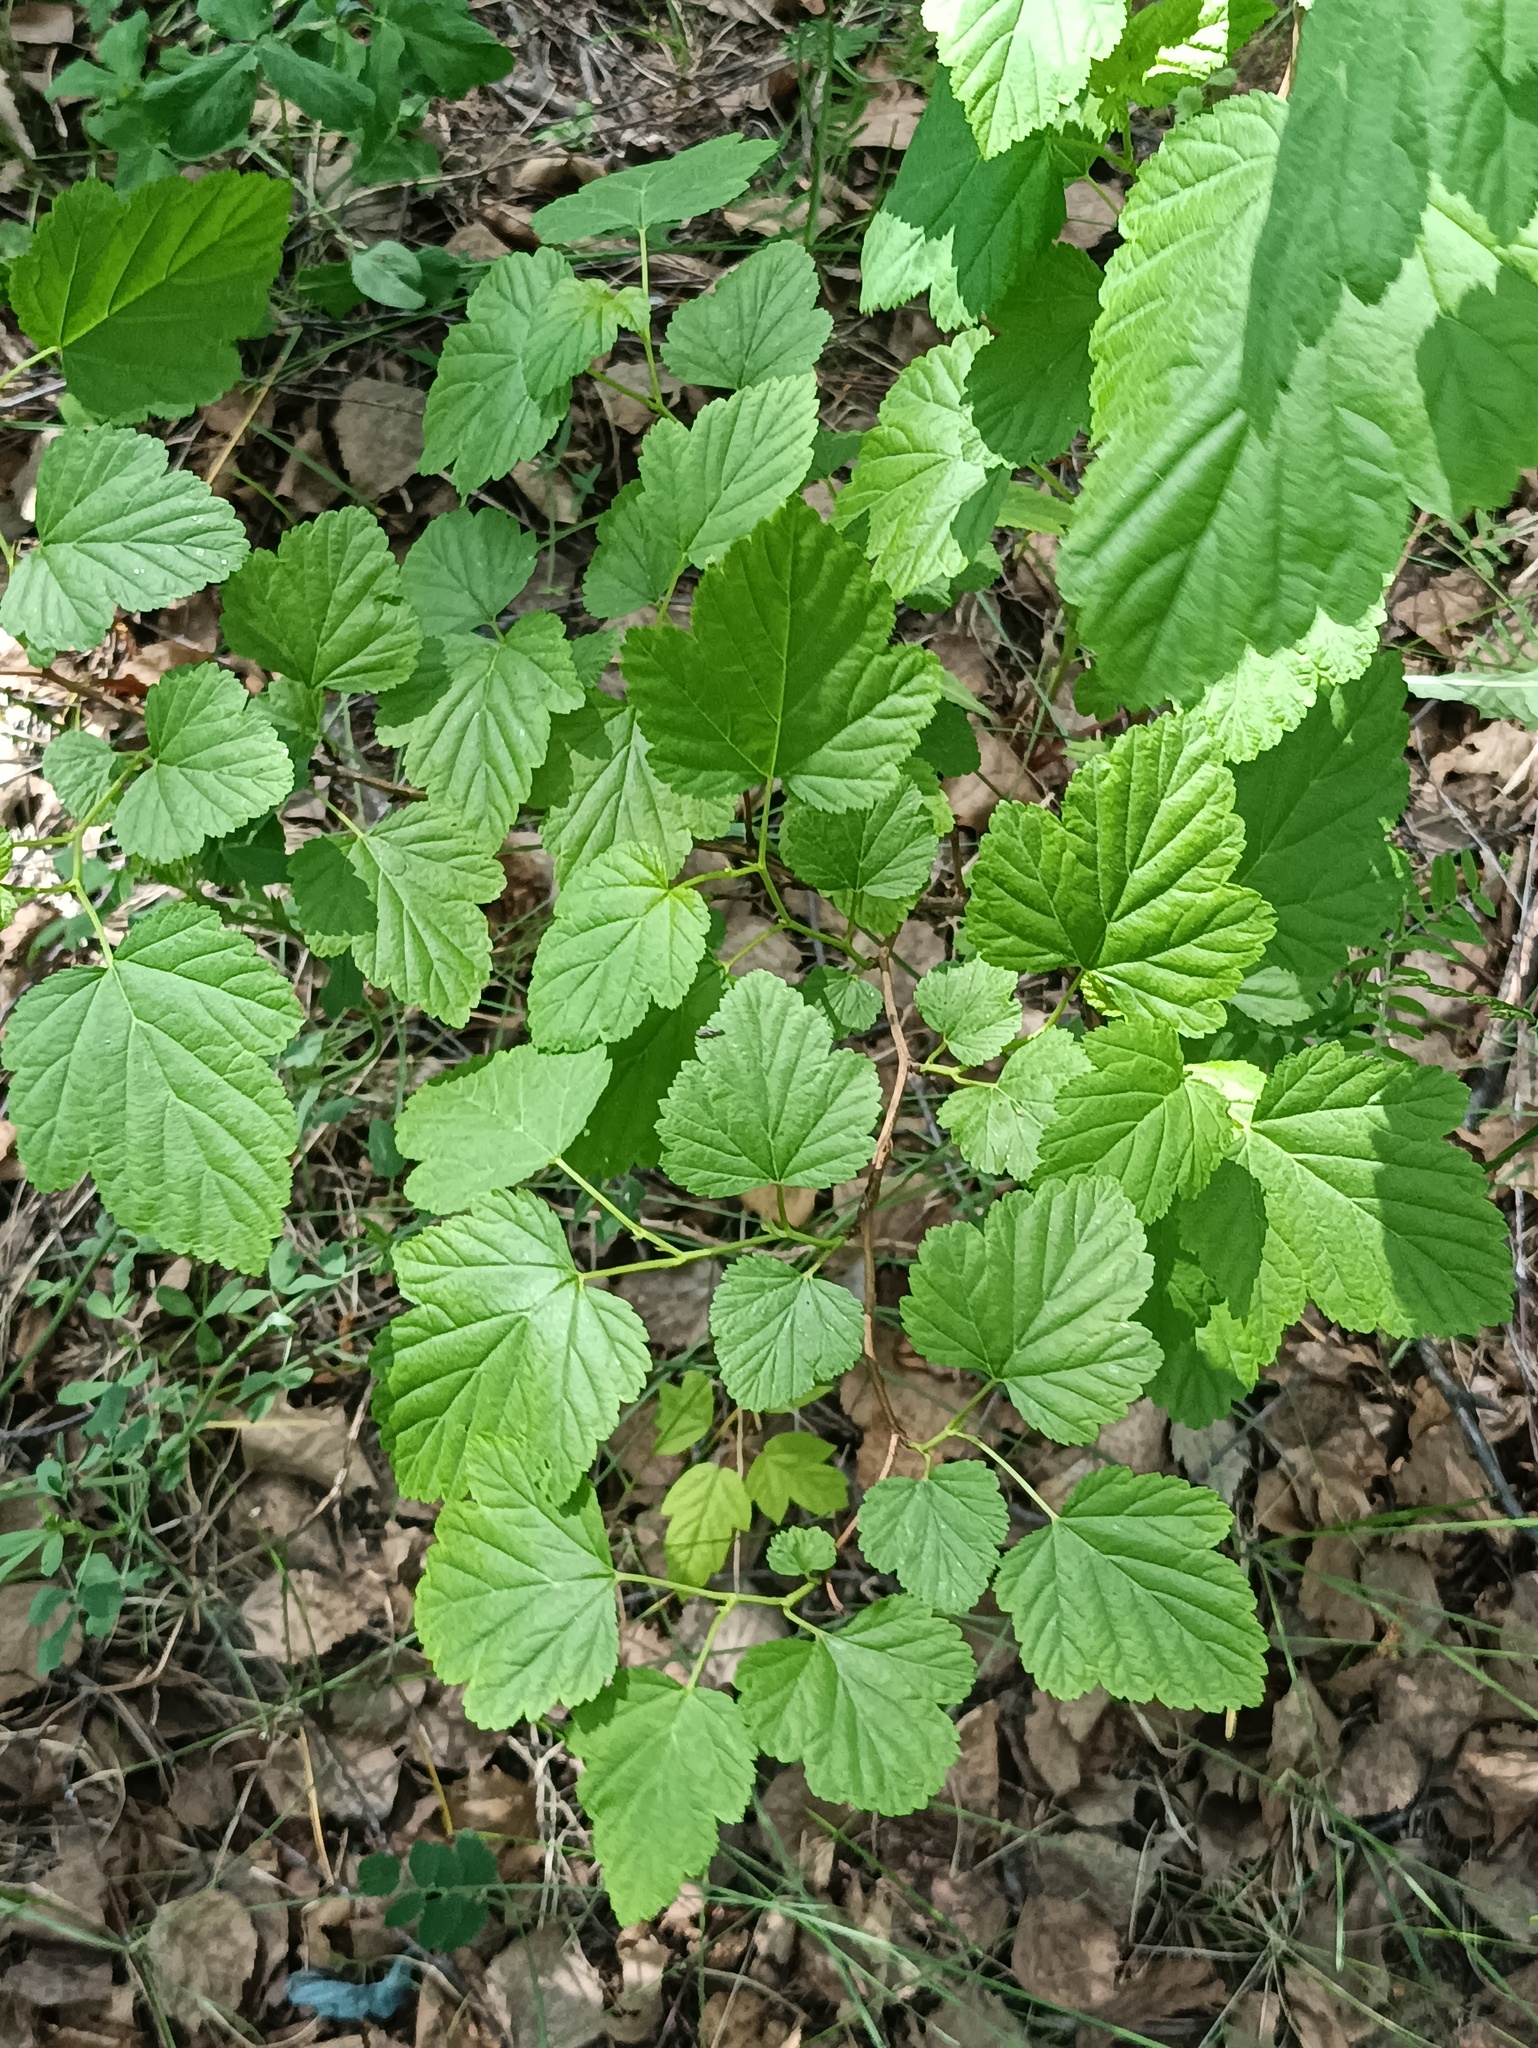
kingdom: Plantae
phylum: Tracheophyta
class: Magnoliopsida
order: Rosales
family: Rosaceae
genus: Physocarpus
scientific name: Physocarpus opulifolius
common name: Ninebark
